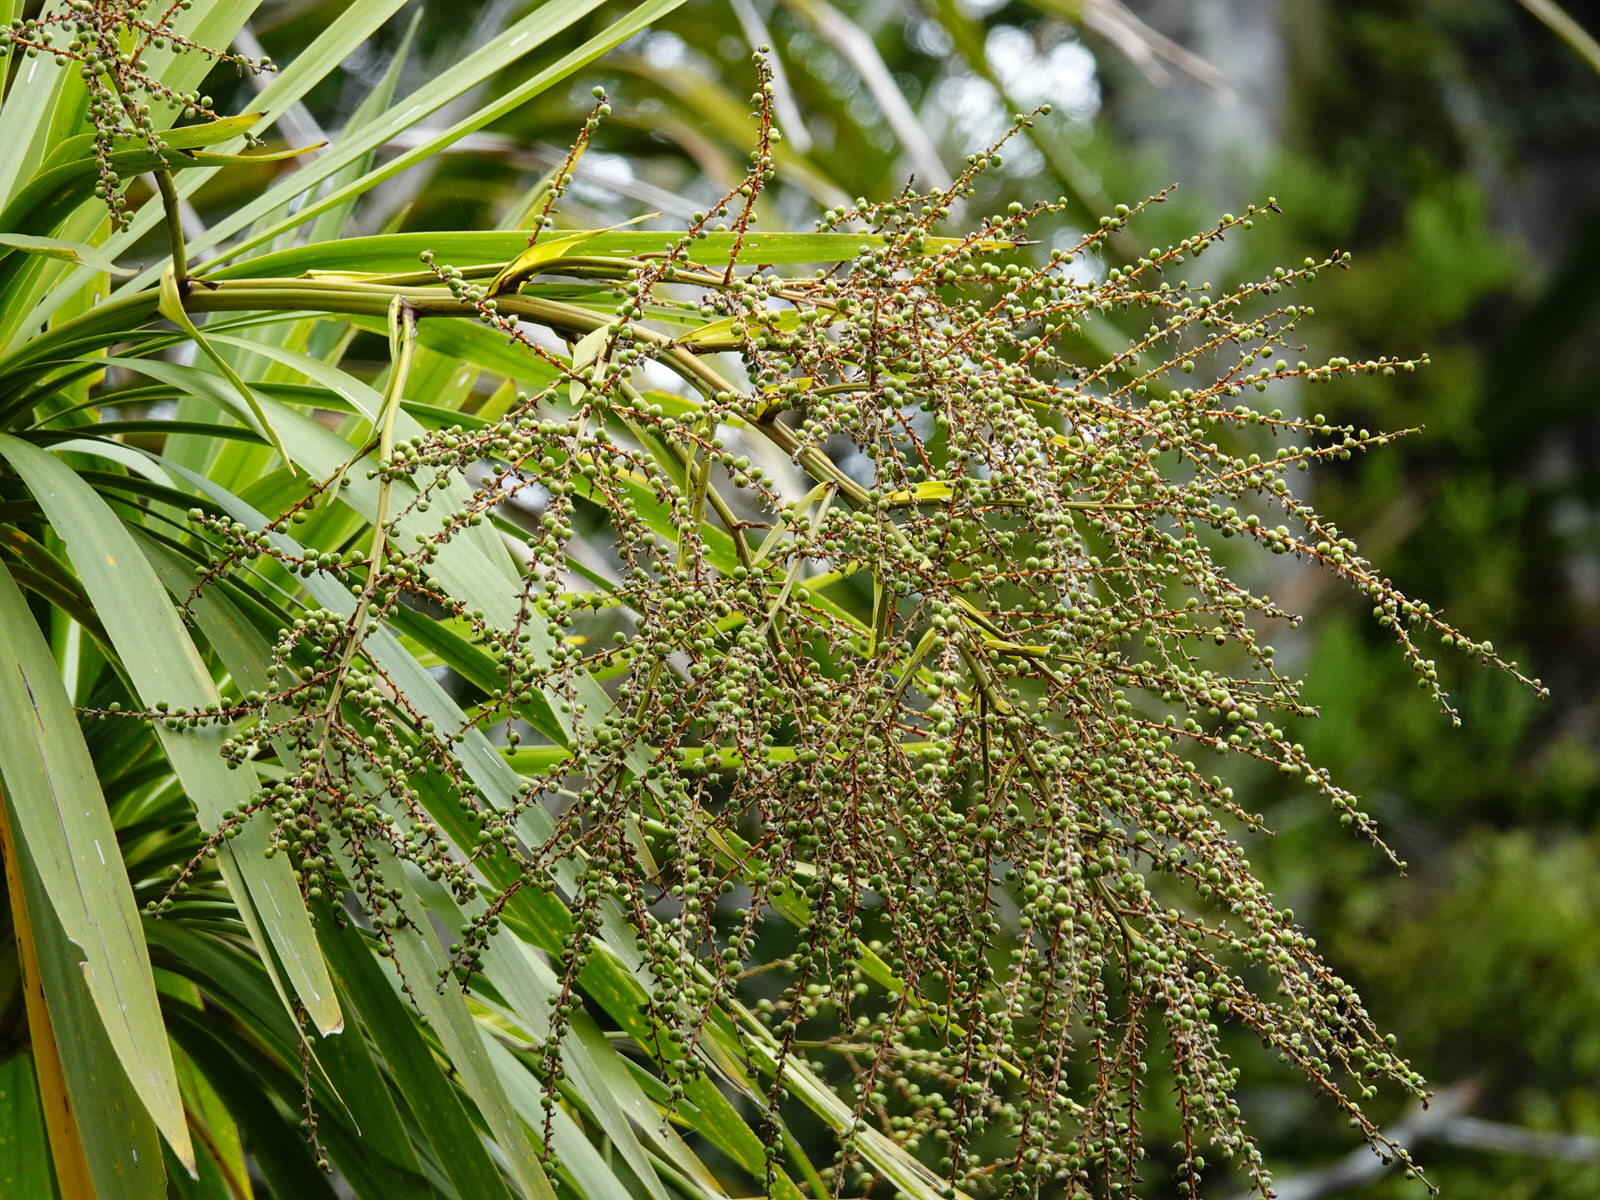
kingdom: Plantae
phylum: Tracheophyta
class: Liliopsida
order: Asparagales
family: Asparagaceae
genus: Cordyline
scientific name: Cordyline australis
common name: Cabbage-palm
